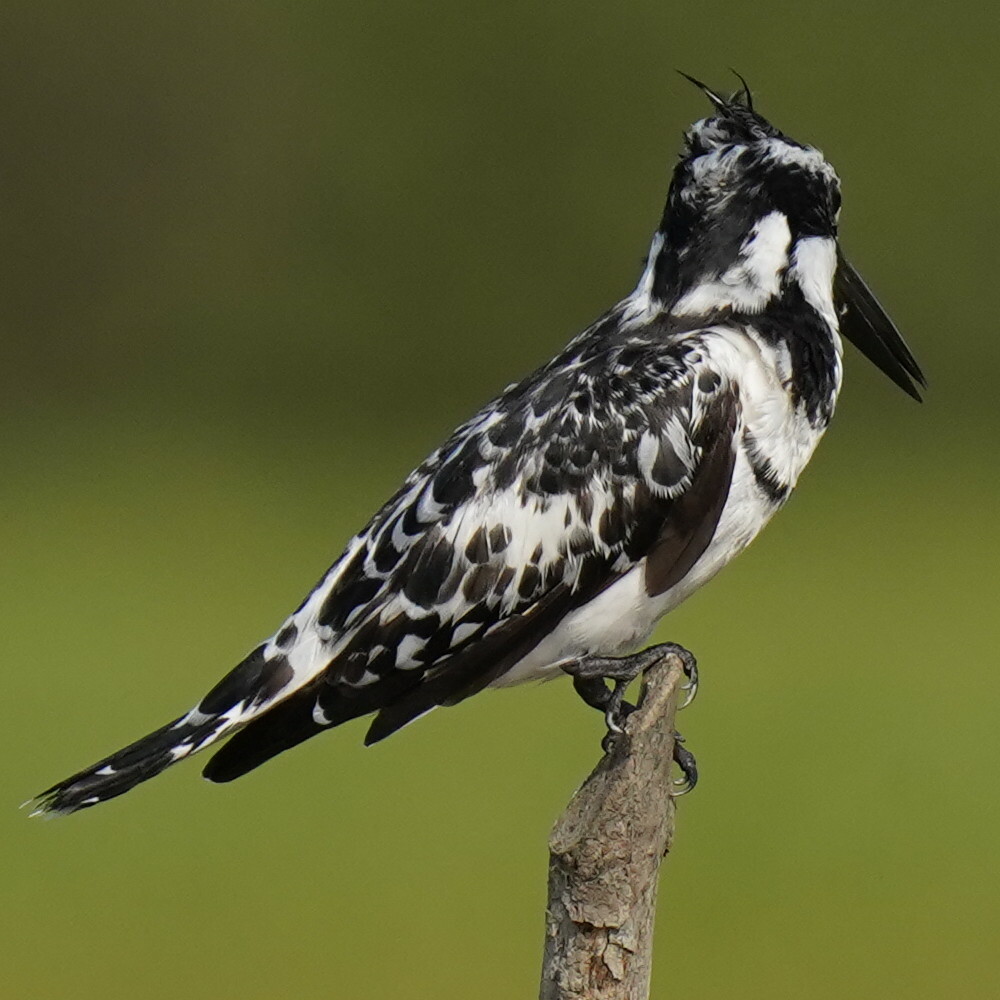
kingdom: Animalia
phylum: Chordata
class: Aves
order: Coraciiformes
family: Alcedinidae
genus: Ceryle
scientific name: Ceryle rudis
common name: Pied kingfisher
